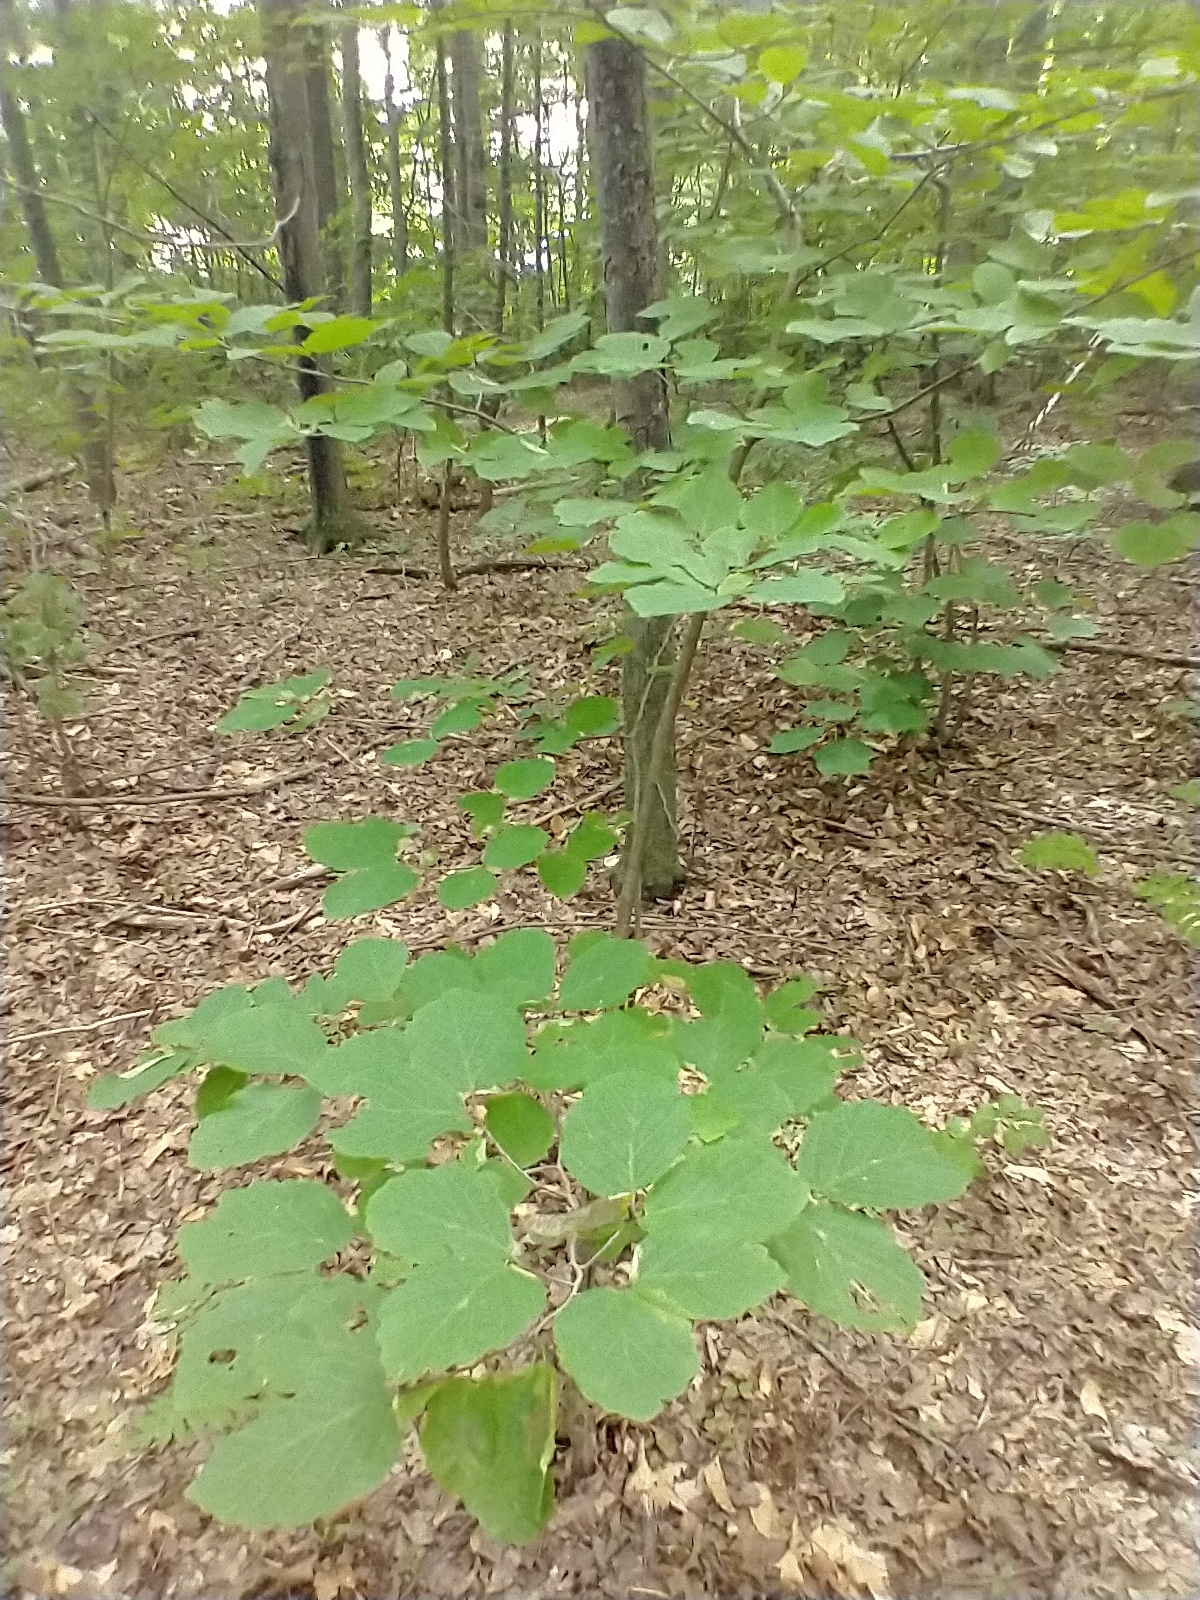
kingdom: Plantae
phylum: Tracheophyta
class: Magnoliopsida
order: Saxifragales
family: Hamamelidaceae
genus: Hamamelis
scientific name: Hamamelis virginiana
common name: Witch-hazel
